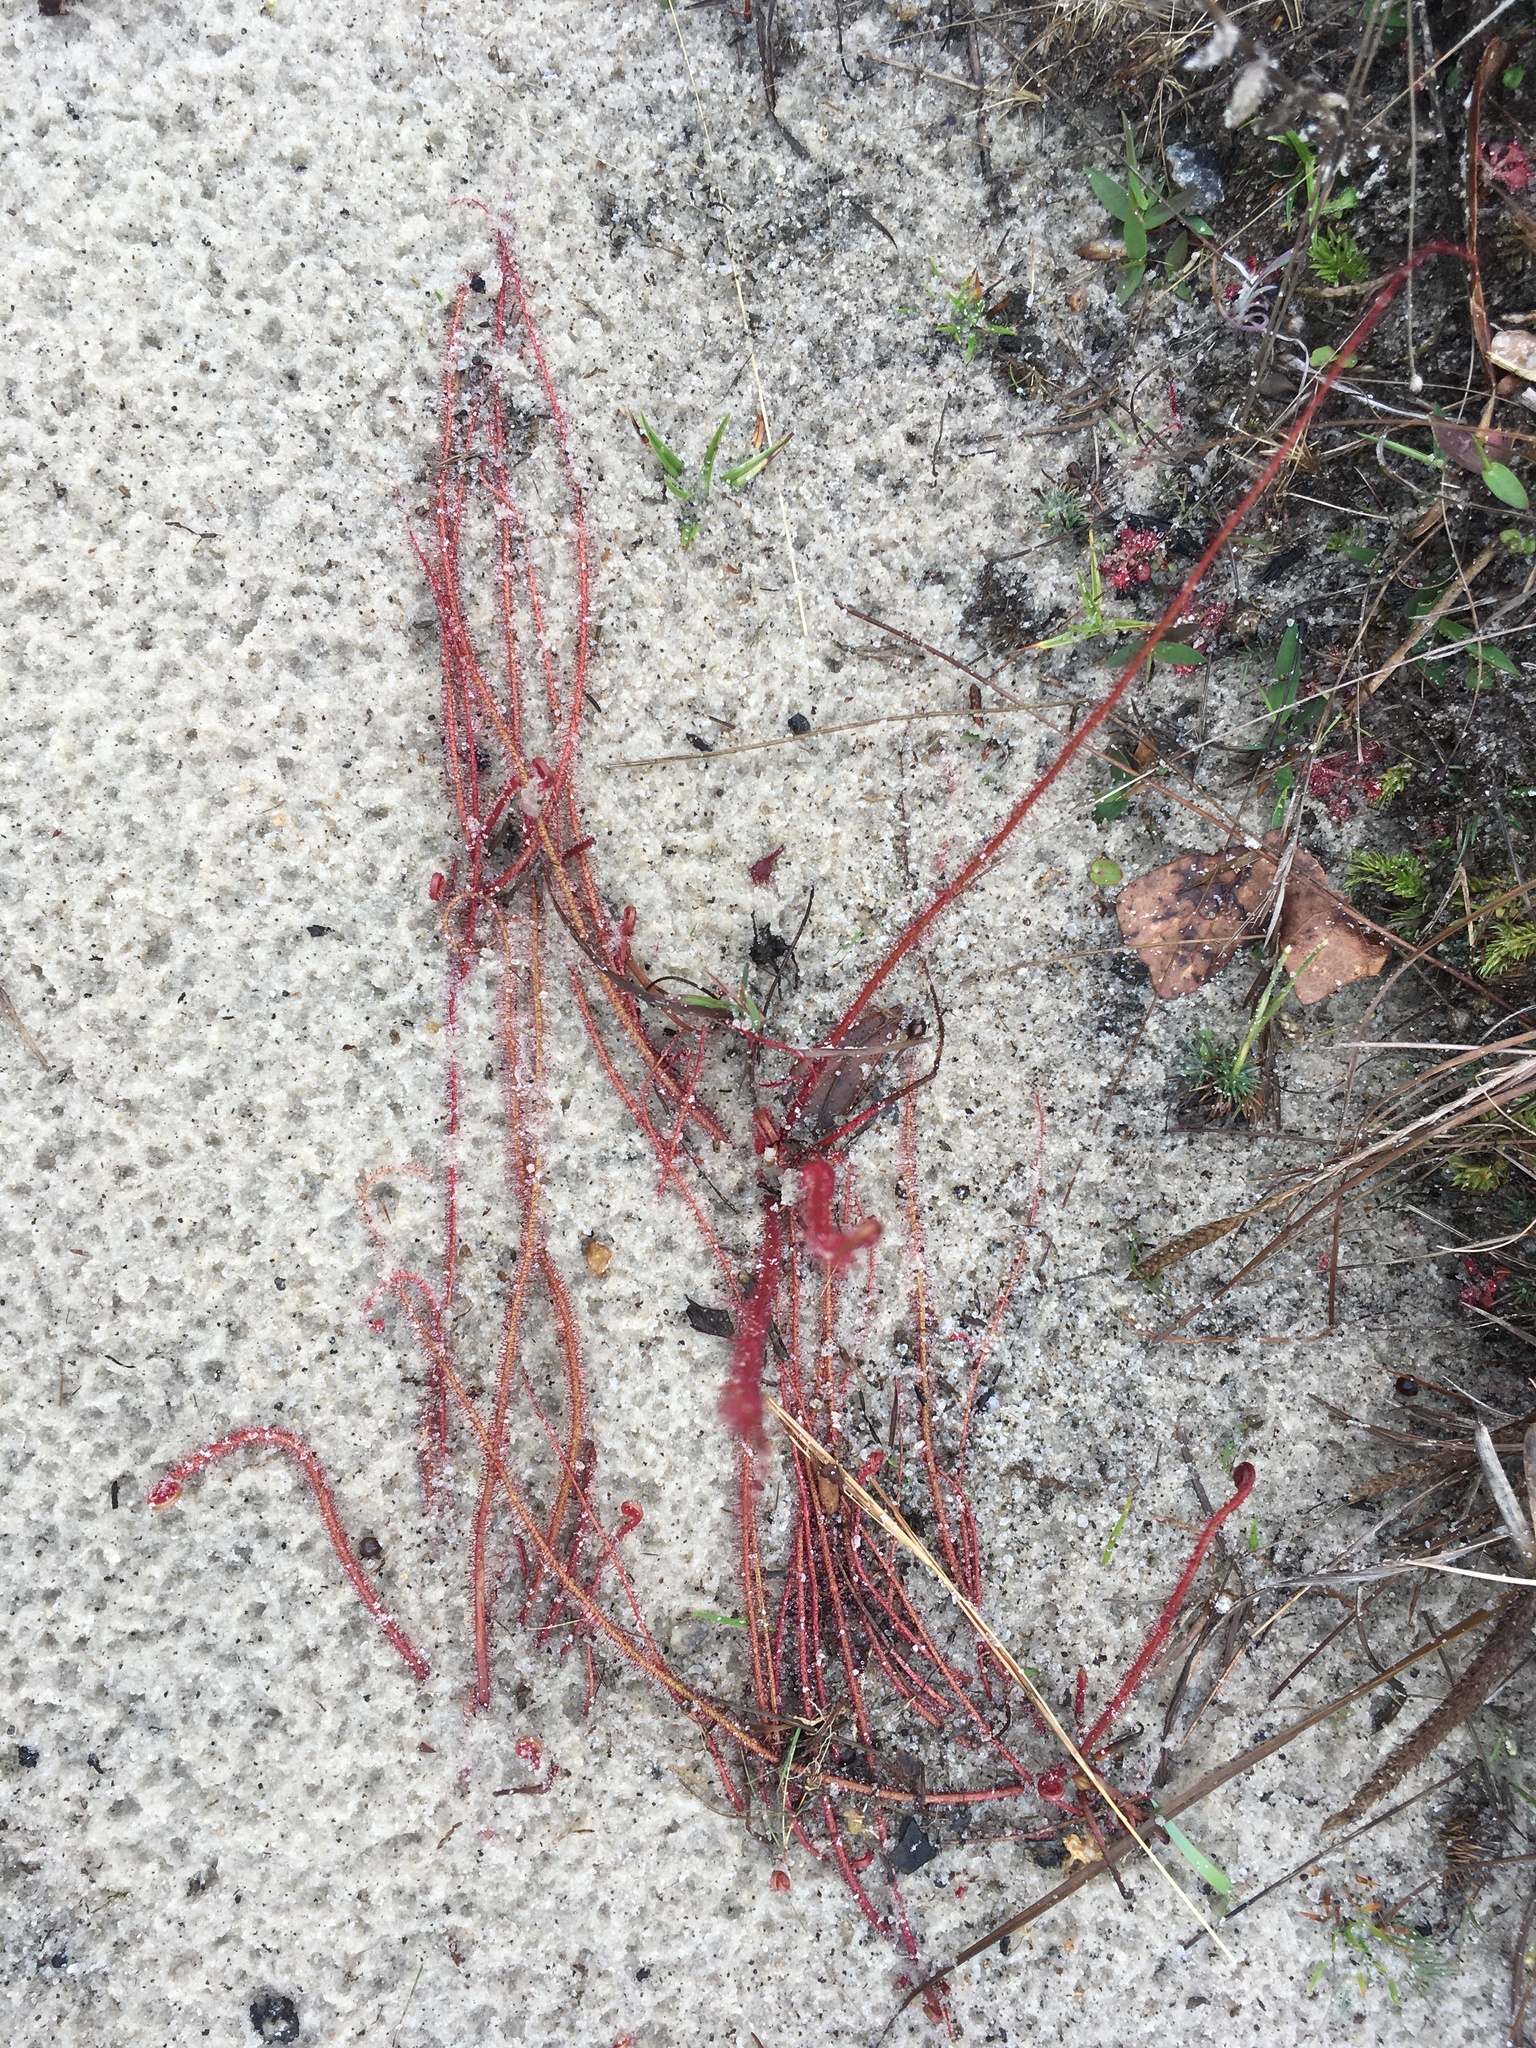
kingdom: Plantae
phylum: Tracheophyta
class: Magnoliopsida
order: Caryophyllales
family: Droseraceae
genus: Drosera
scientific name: Drosera filiformis
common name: Dew-thread
